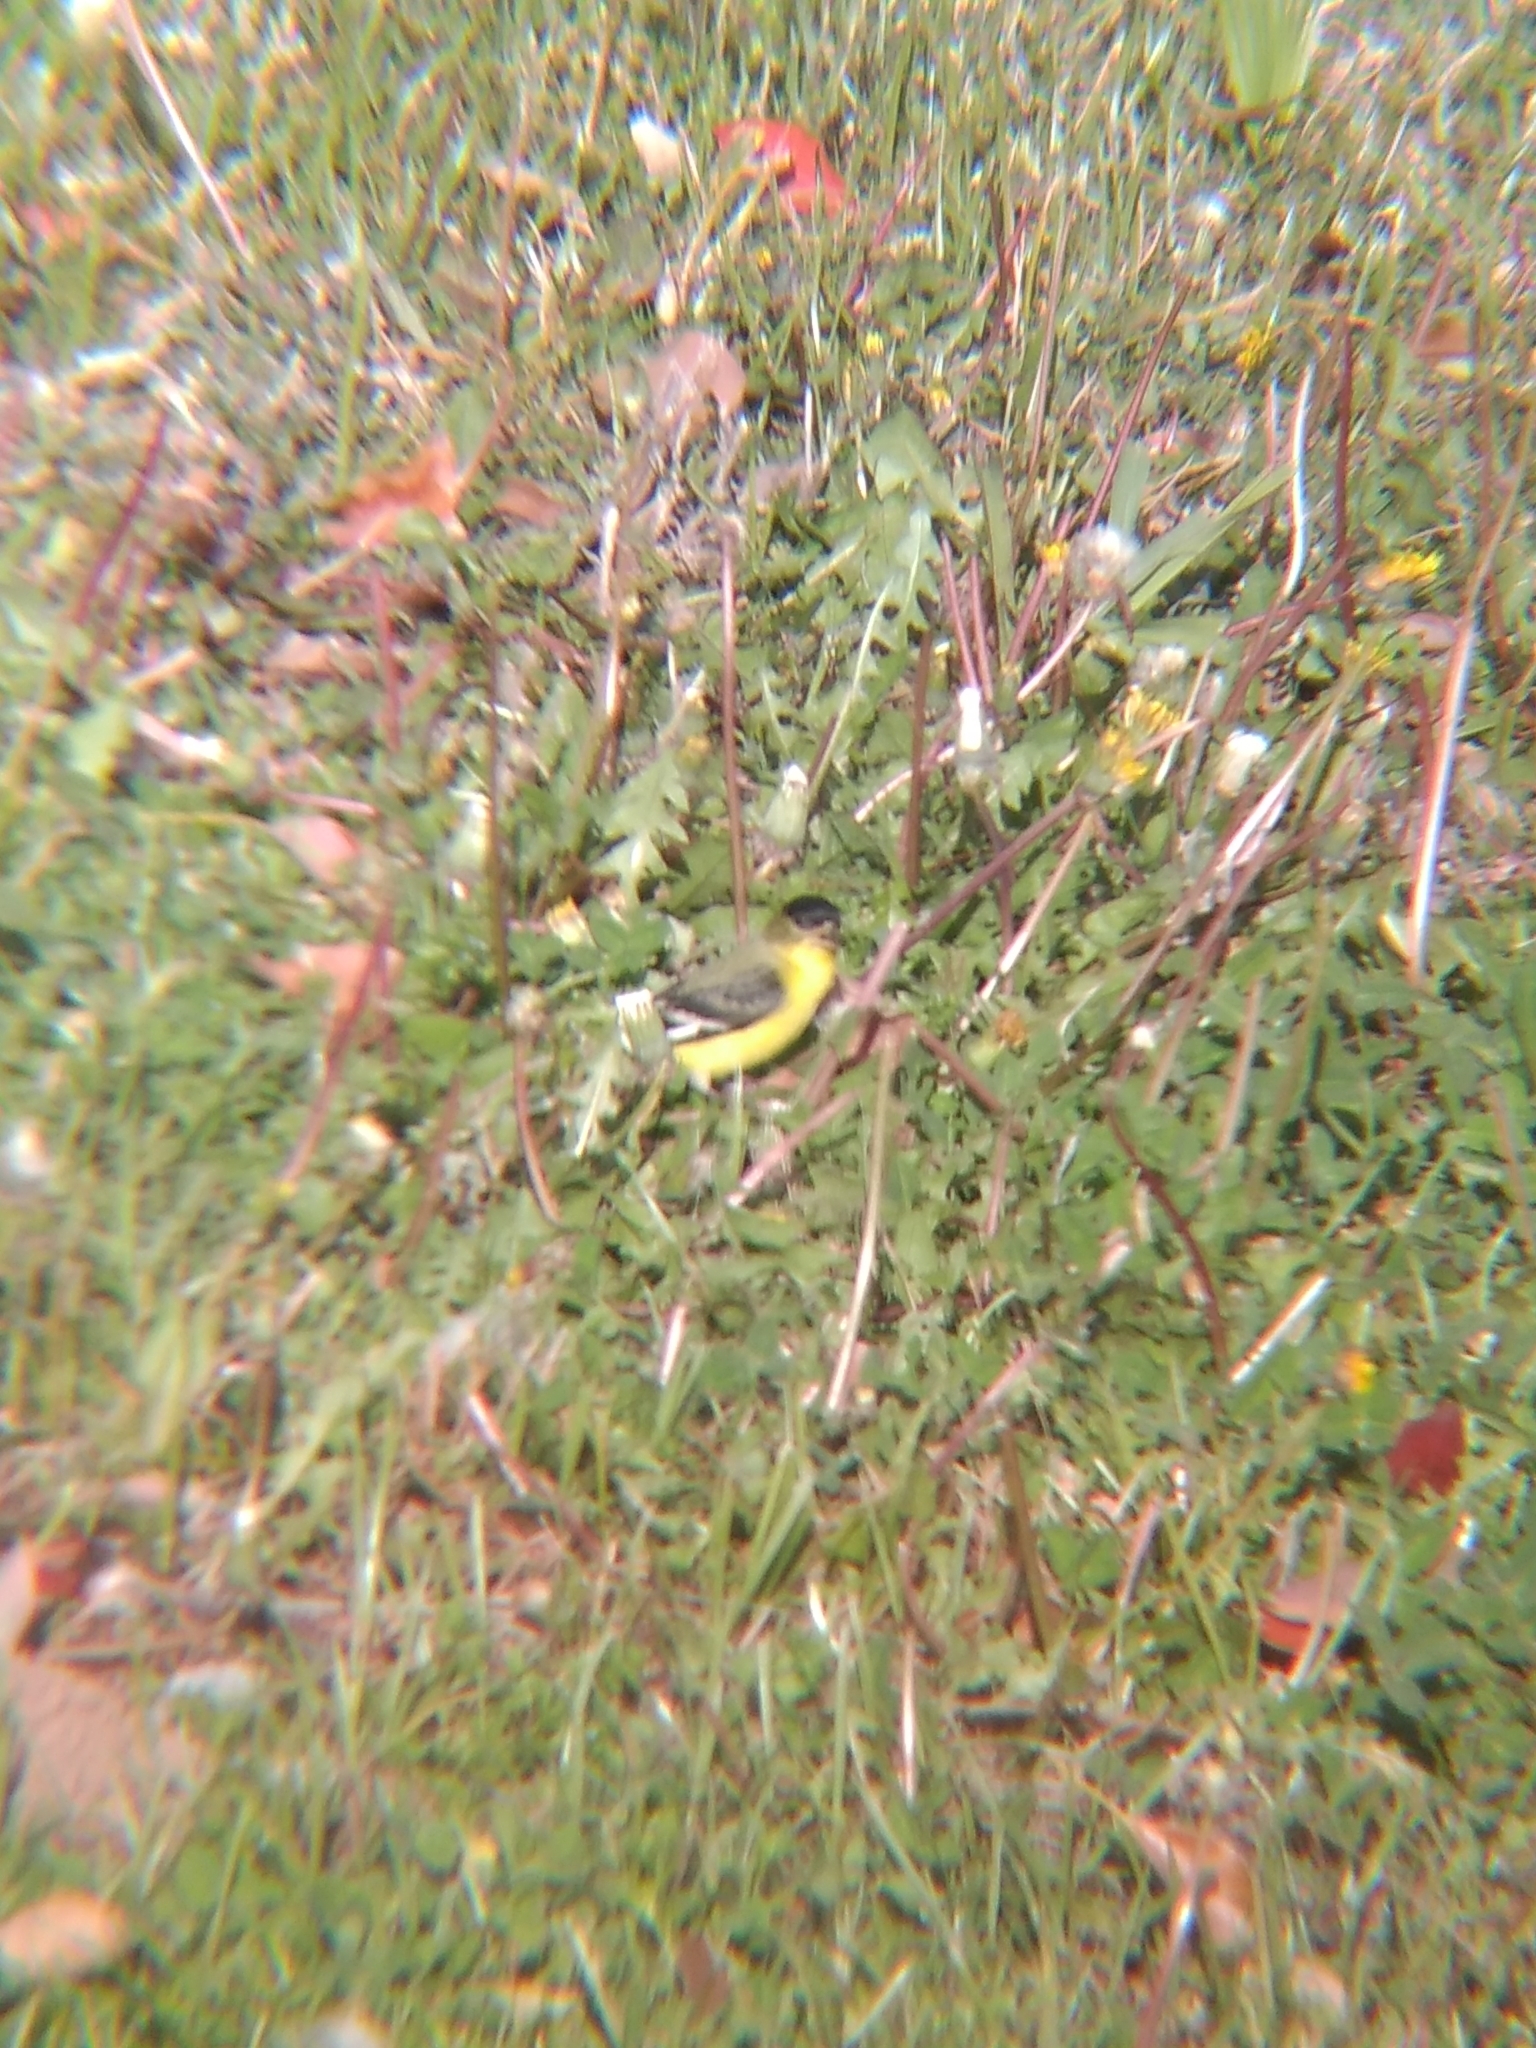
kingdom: Animalia
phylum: Chordata
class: Aves
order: Passeriformes
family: Fringillidae
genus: Spinus
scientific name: Spinus psaltria
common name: Lesser goldfinch
